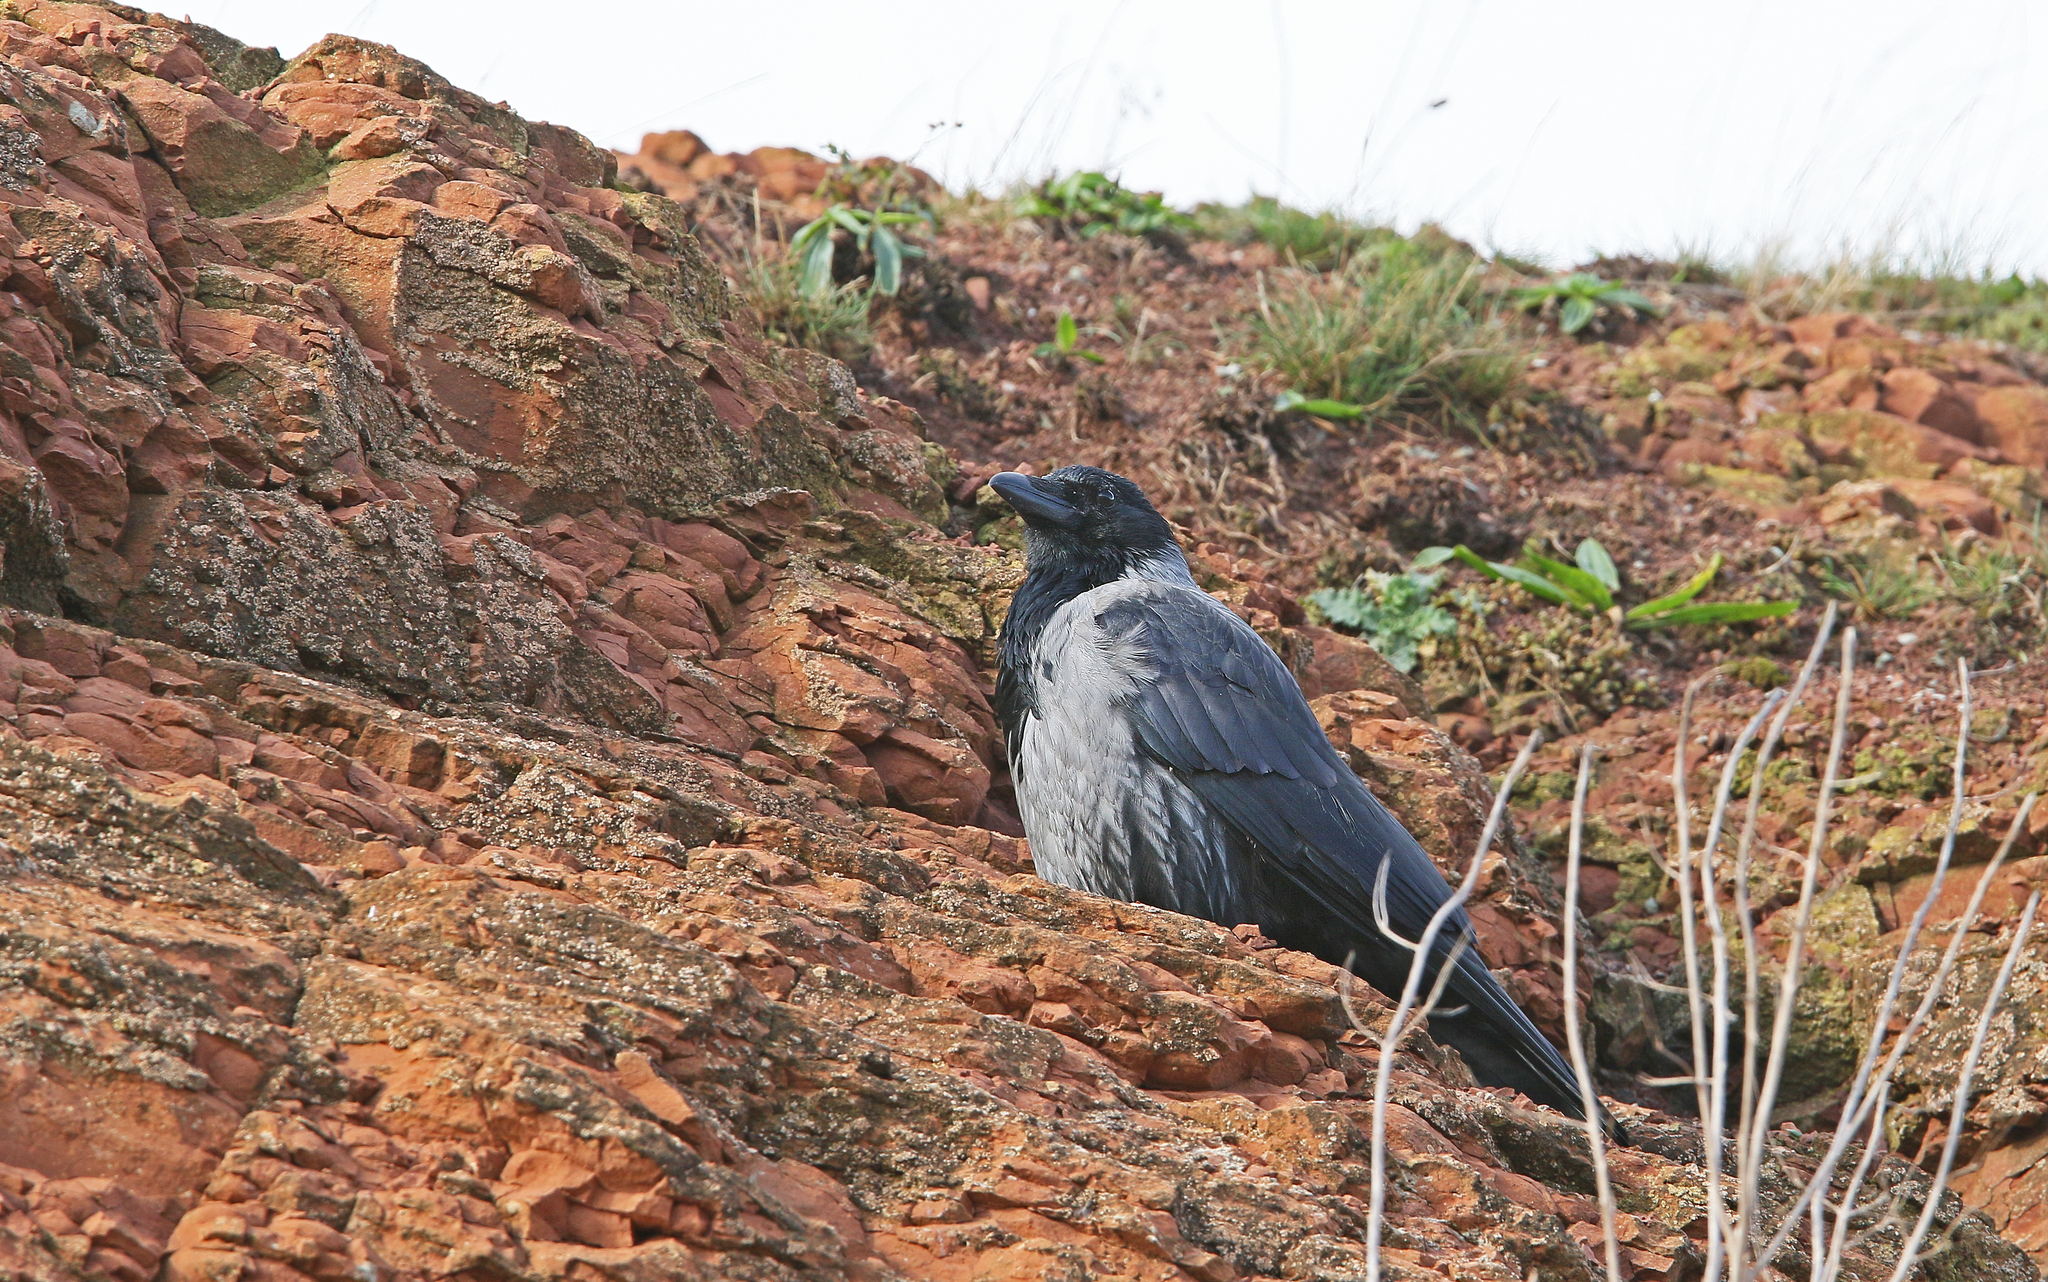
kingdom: Animalia
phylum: Chordata
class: Aves
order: Passeriformes
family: Corvidae
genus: Corvus
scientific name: Corvus
